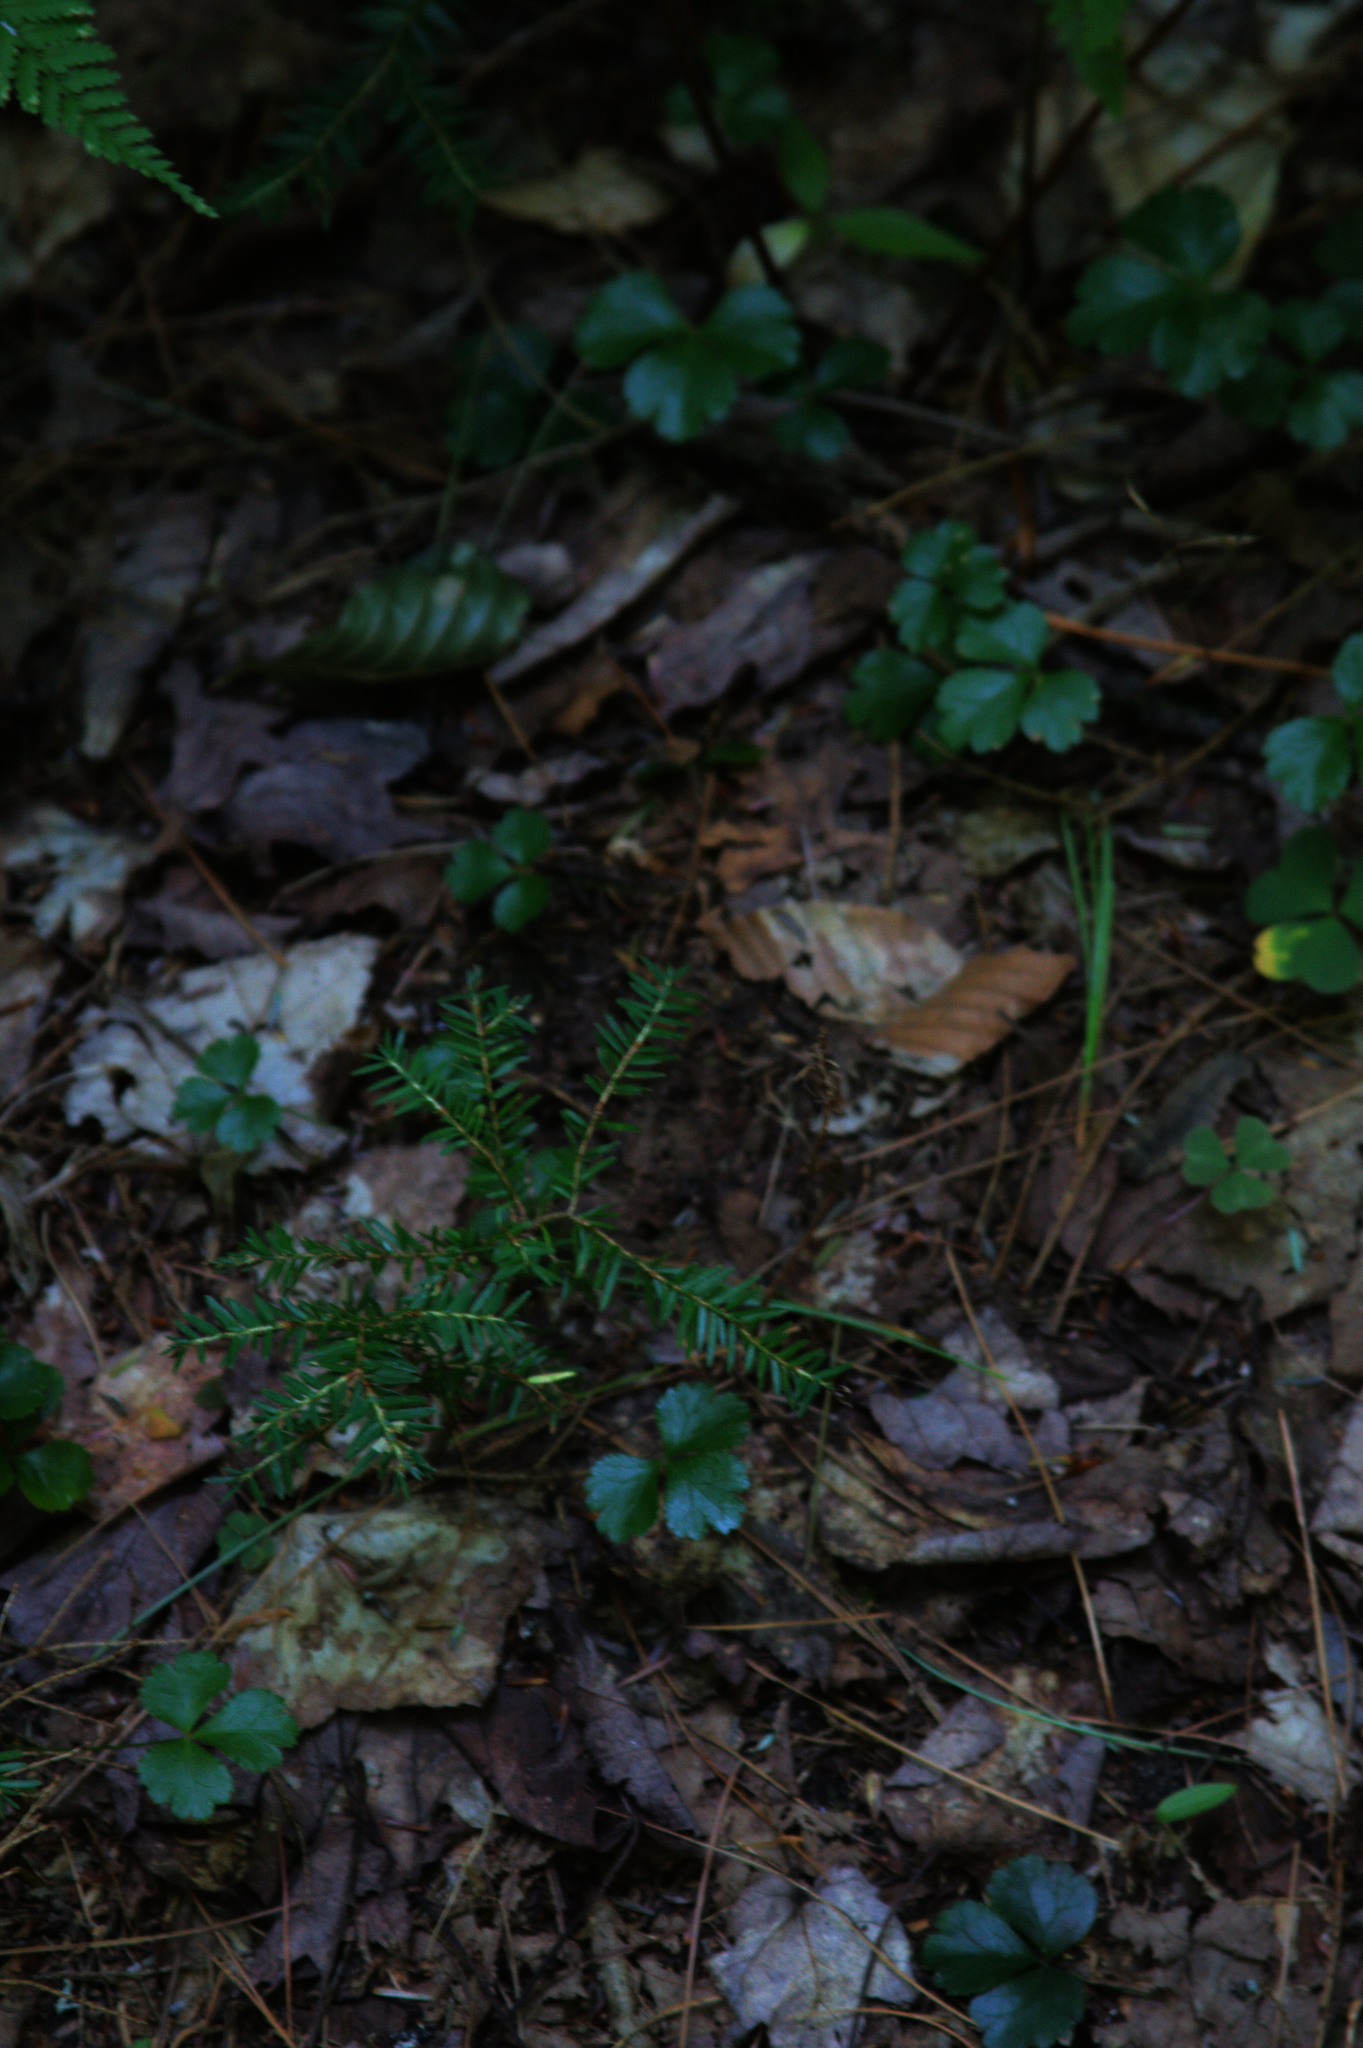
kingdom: Plantae
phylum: Tracheophyta
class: Magnoliopsida
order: Ranunculales
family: Ranunculaceae
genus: Coptis
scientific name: Coptis trifolia
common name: Canker-root
